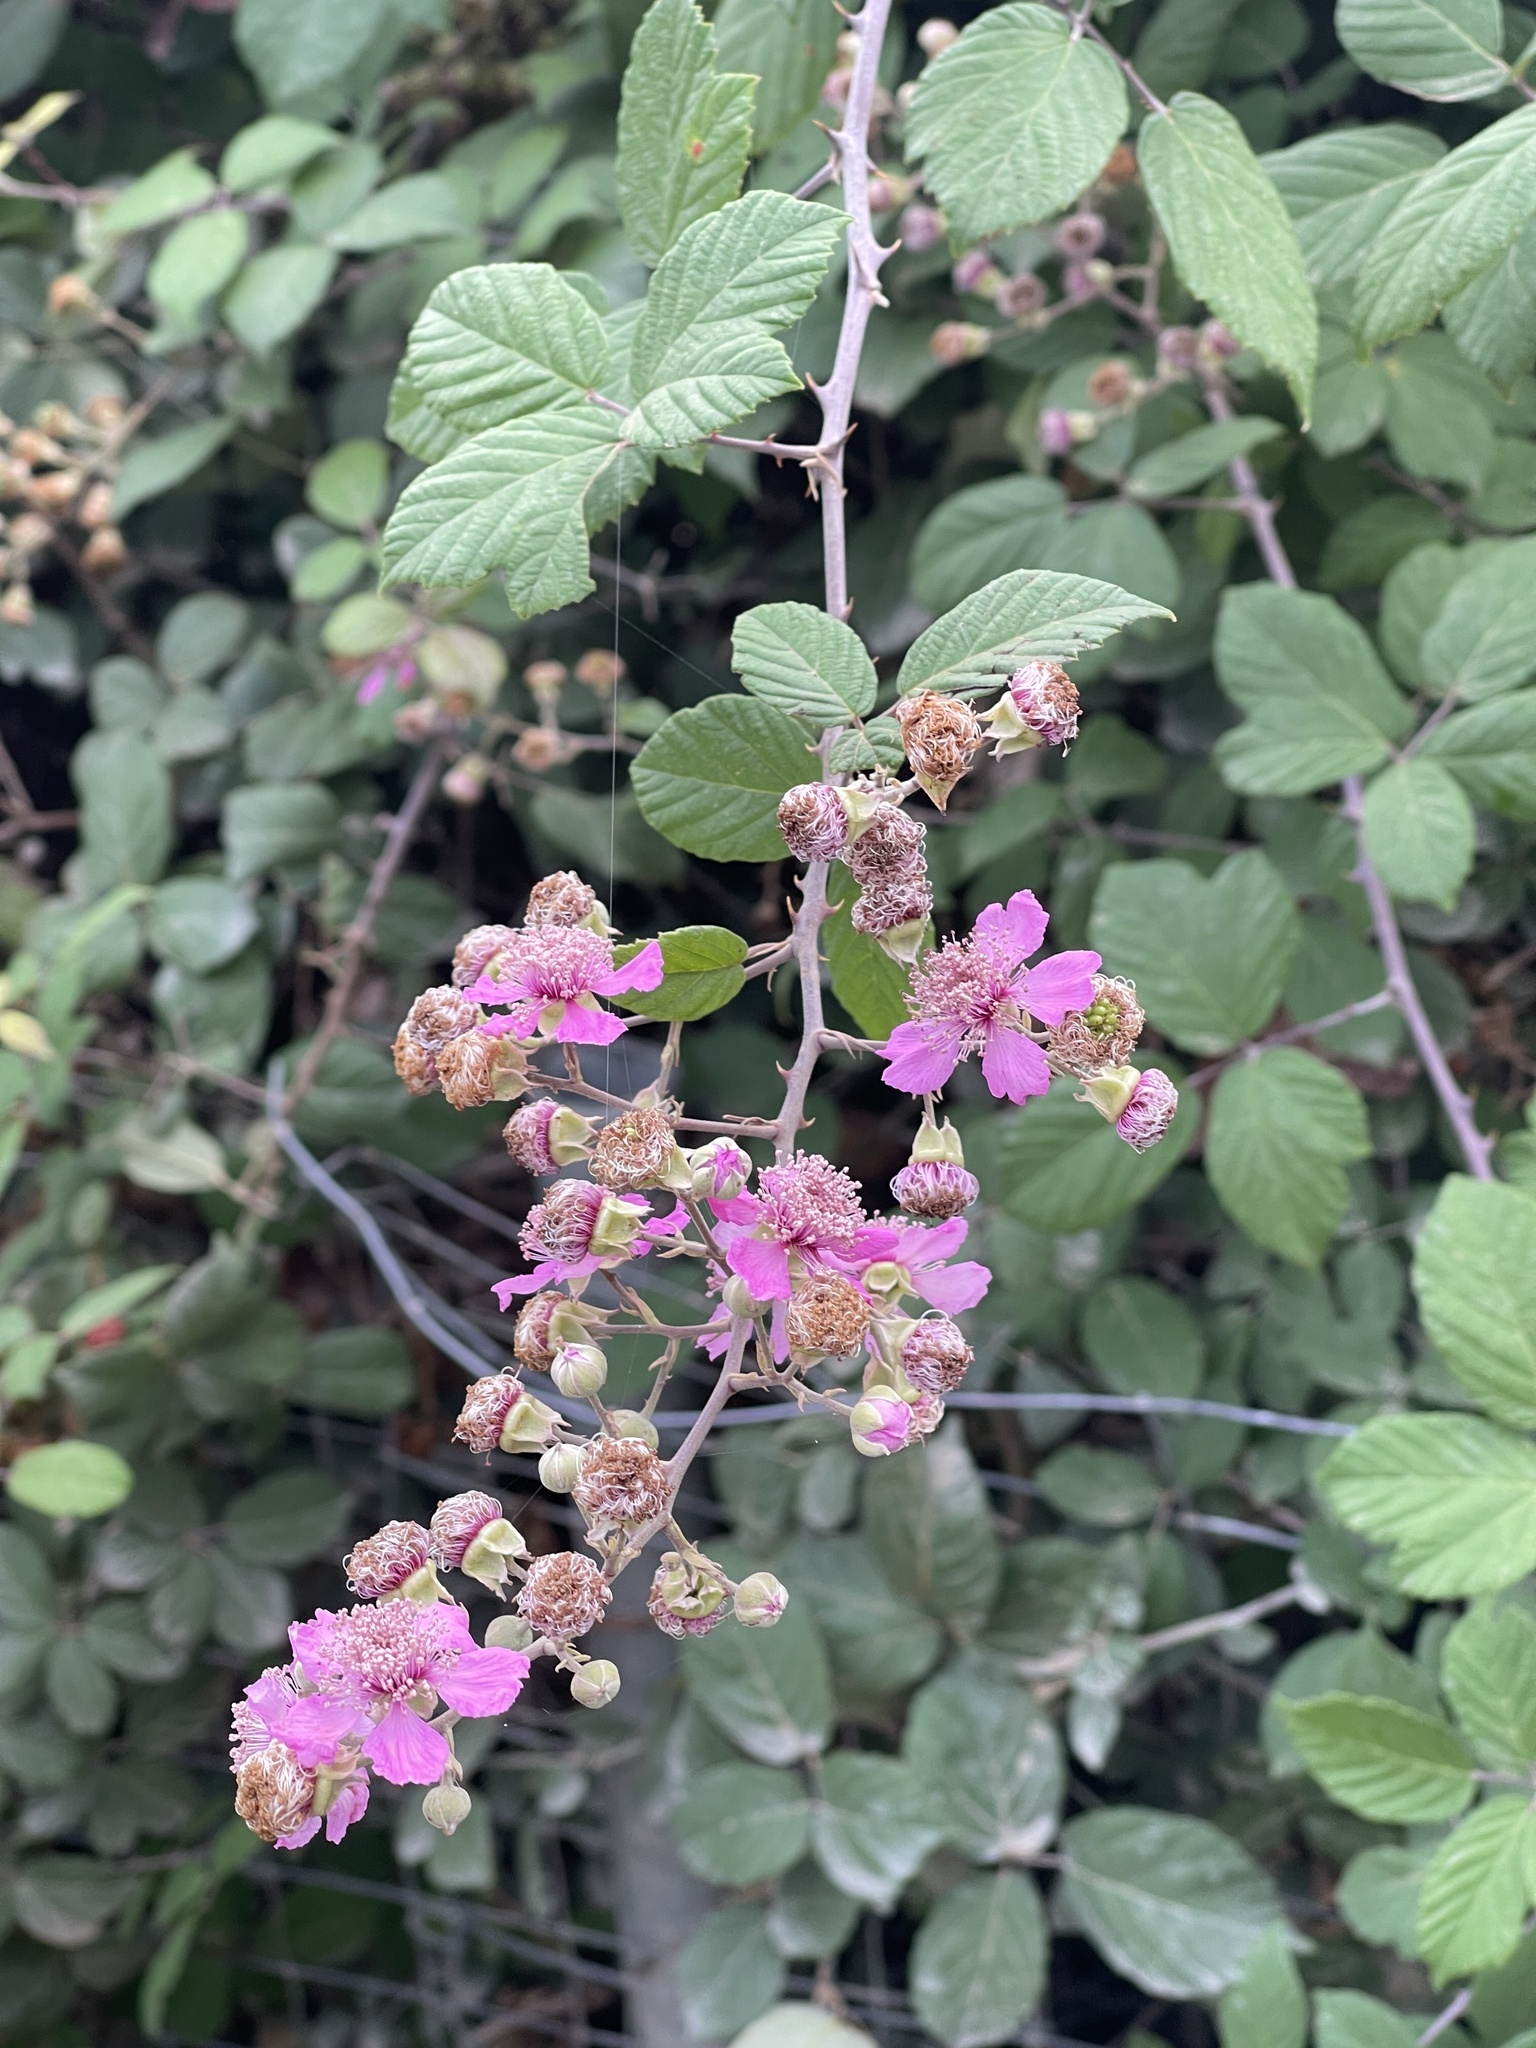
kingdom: Plantae
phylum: Tracheophyta
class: Magnoliopsida
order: Rosales
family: Rosaceae
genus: Rubus
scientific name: Rubus sanctus
